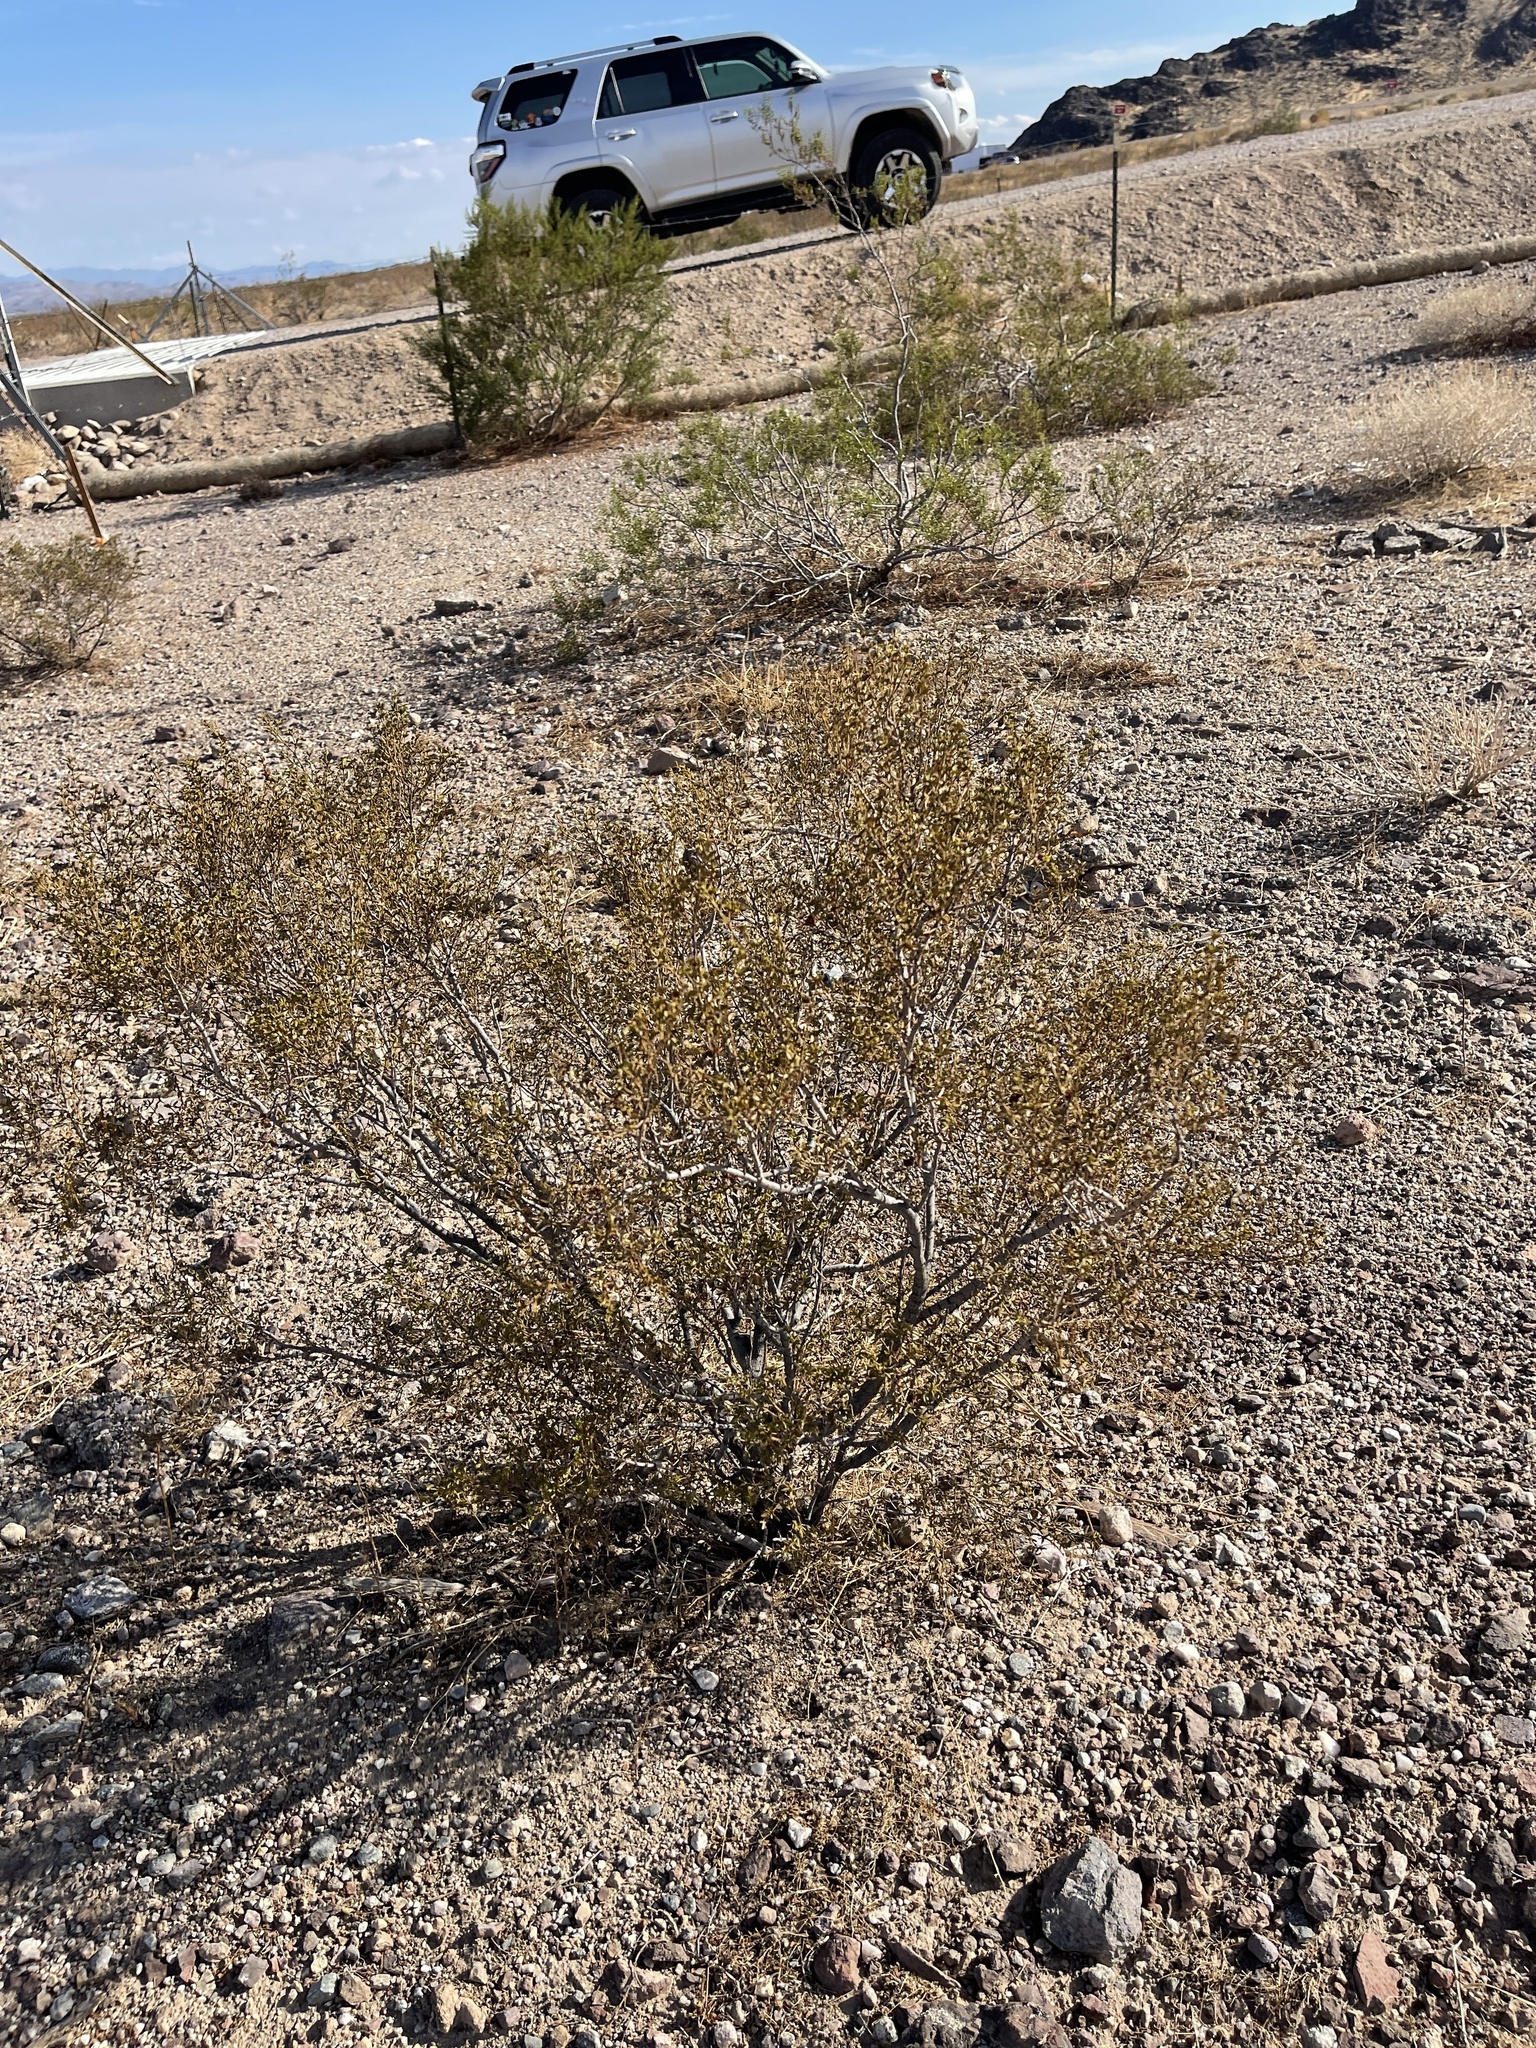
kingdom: Plantae
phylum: Tracheophyta
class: Magnoliopsida
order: Zygophyllales
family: Zygophyllaceae
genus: Larrea
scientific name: Larrea tridentata
